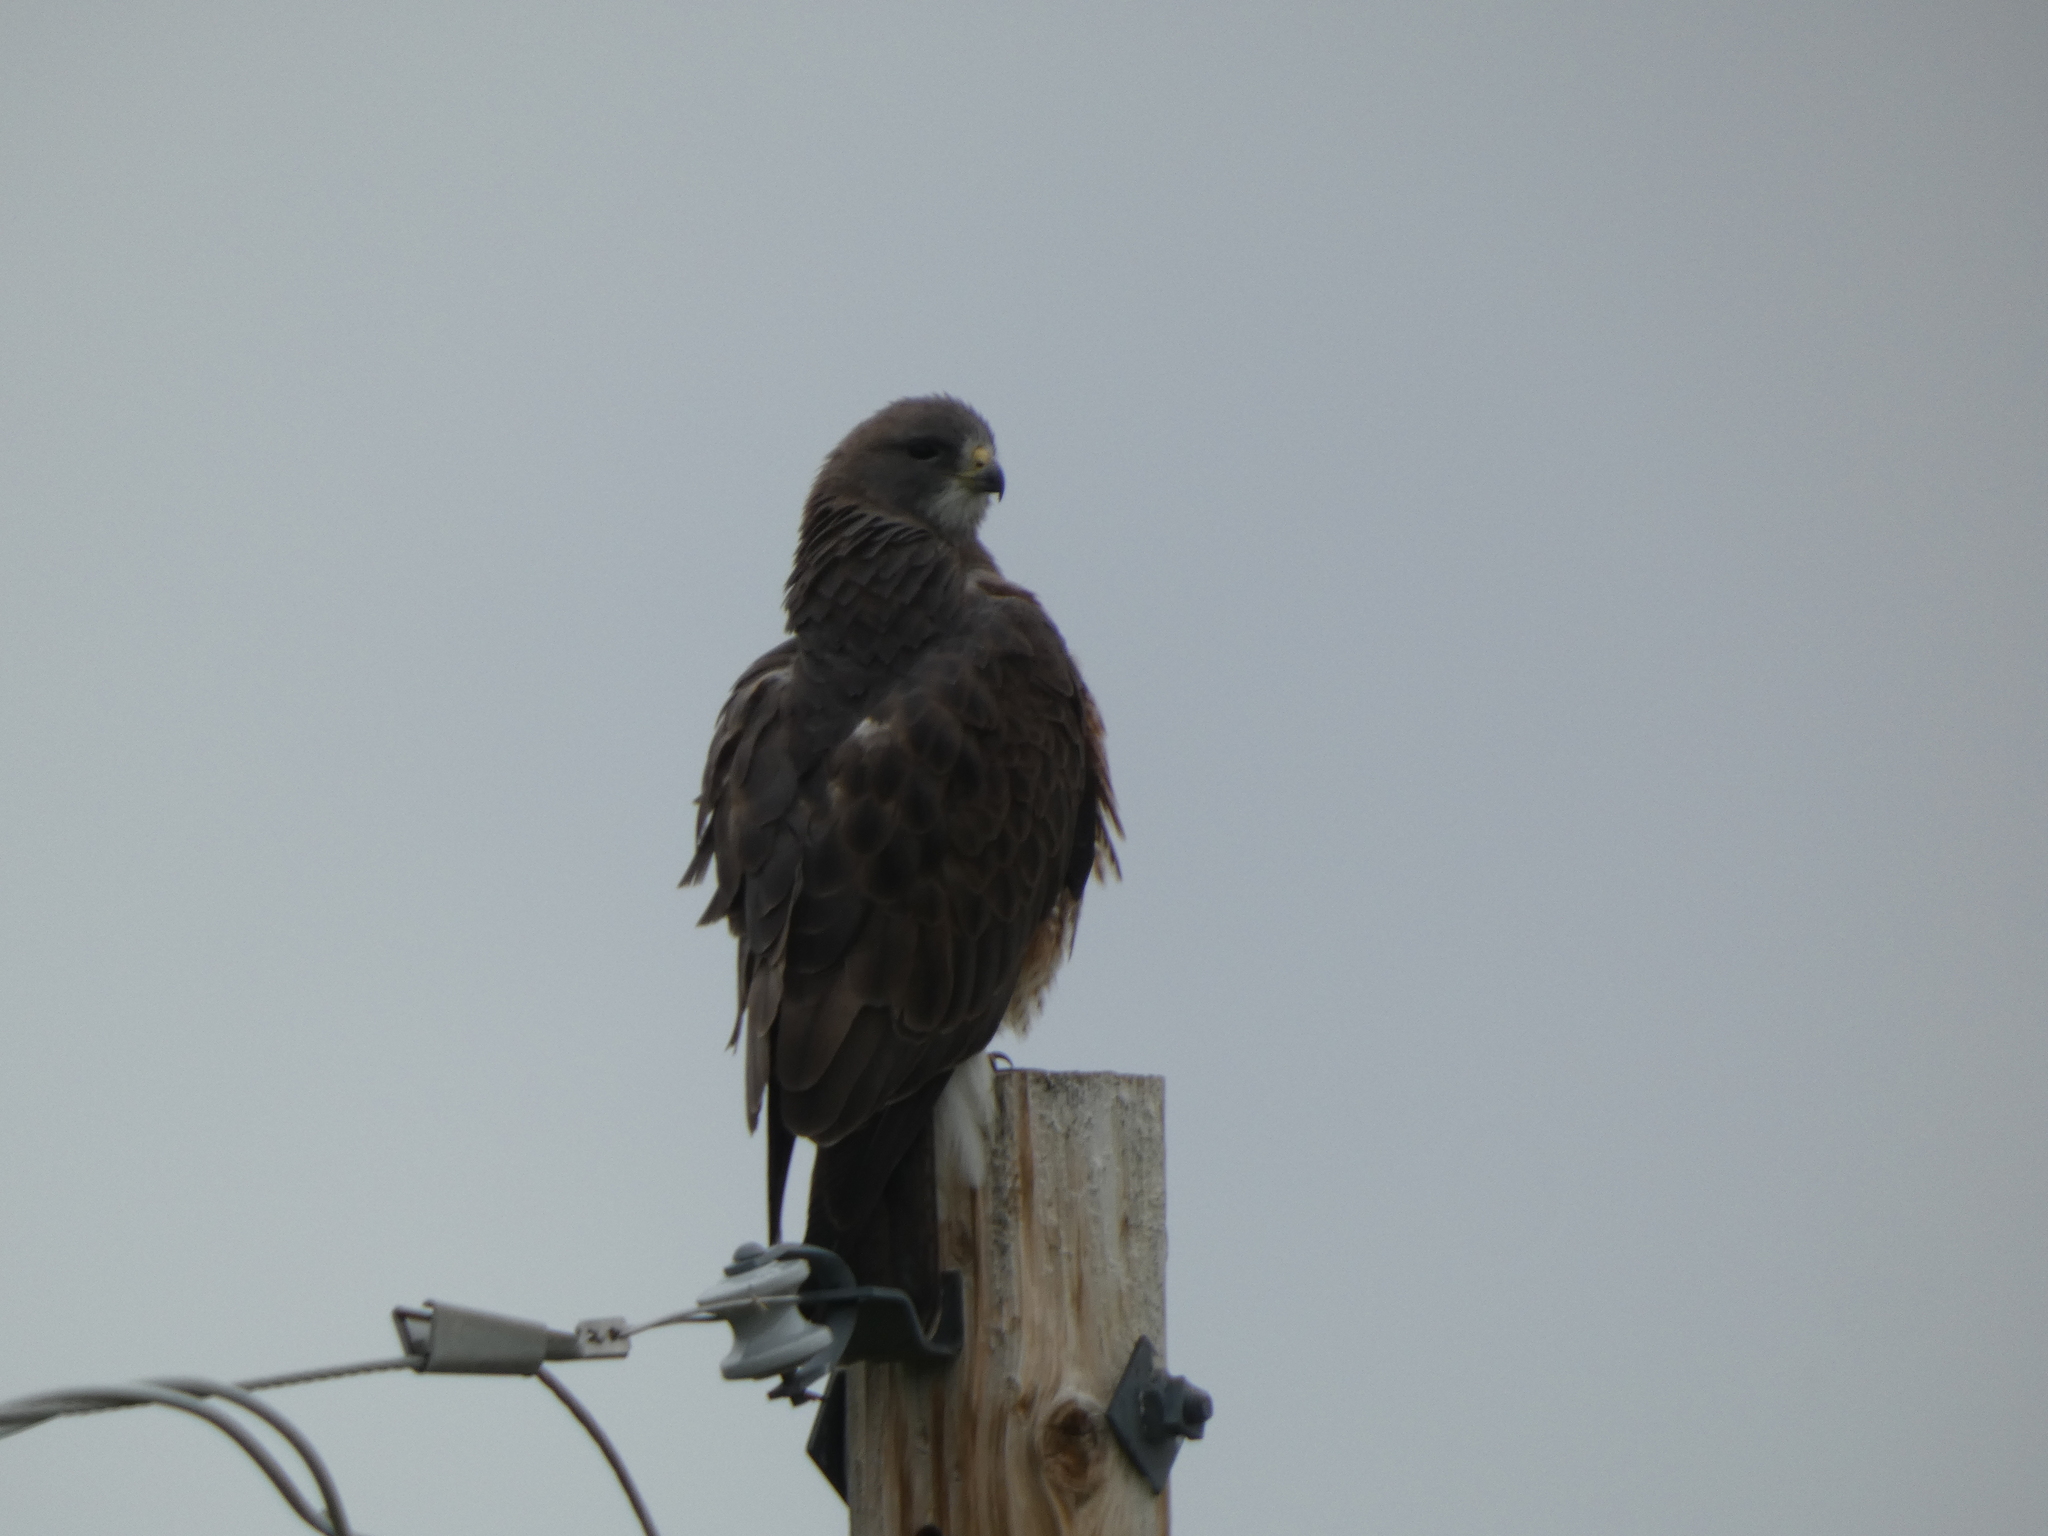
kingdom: Animalia
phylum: Chordata
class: Aves
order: Accipitriformes
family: Accipitridae
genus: Buteo
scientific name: Buteo swainsoni
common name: Swainson's hawk
